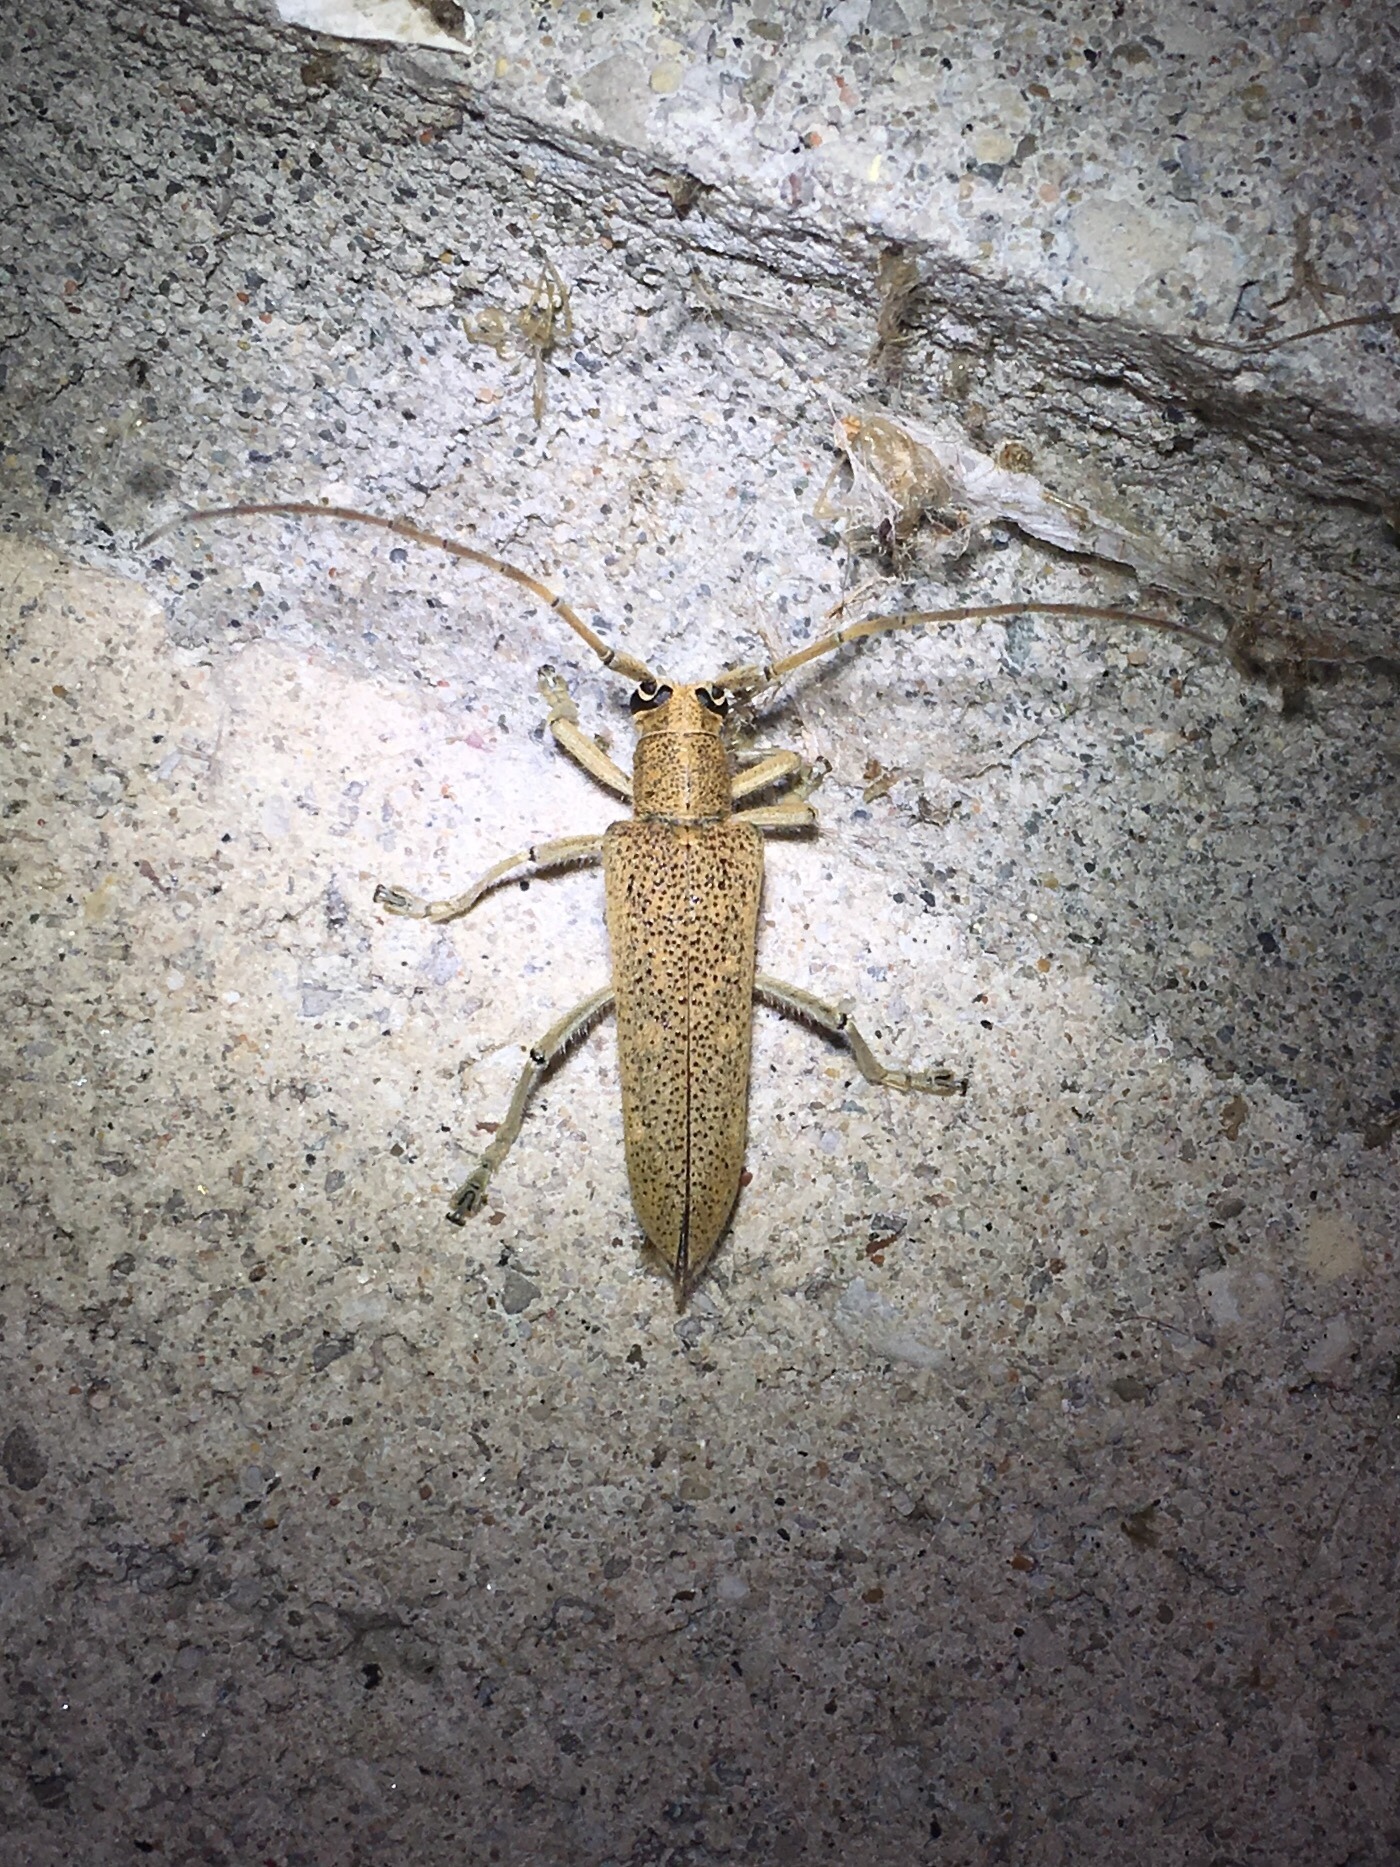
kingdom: Animalia
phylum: Arthropoda
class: Insecta
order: Coleoptera
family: Cerambycidae
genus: Saperda
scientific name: Saperda calcarata
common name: Poplar borer
